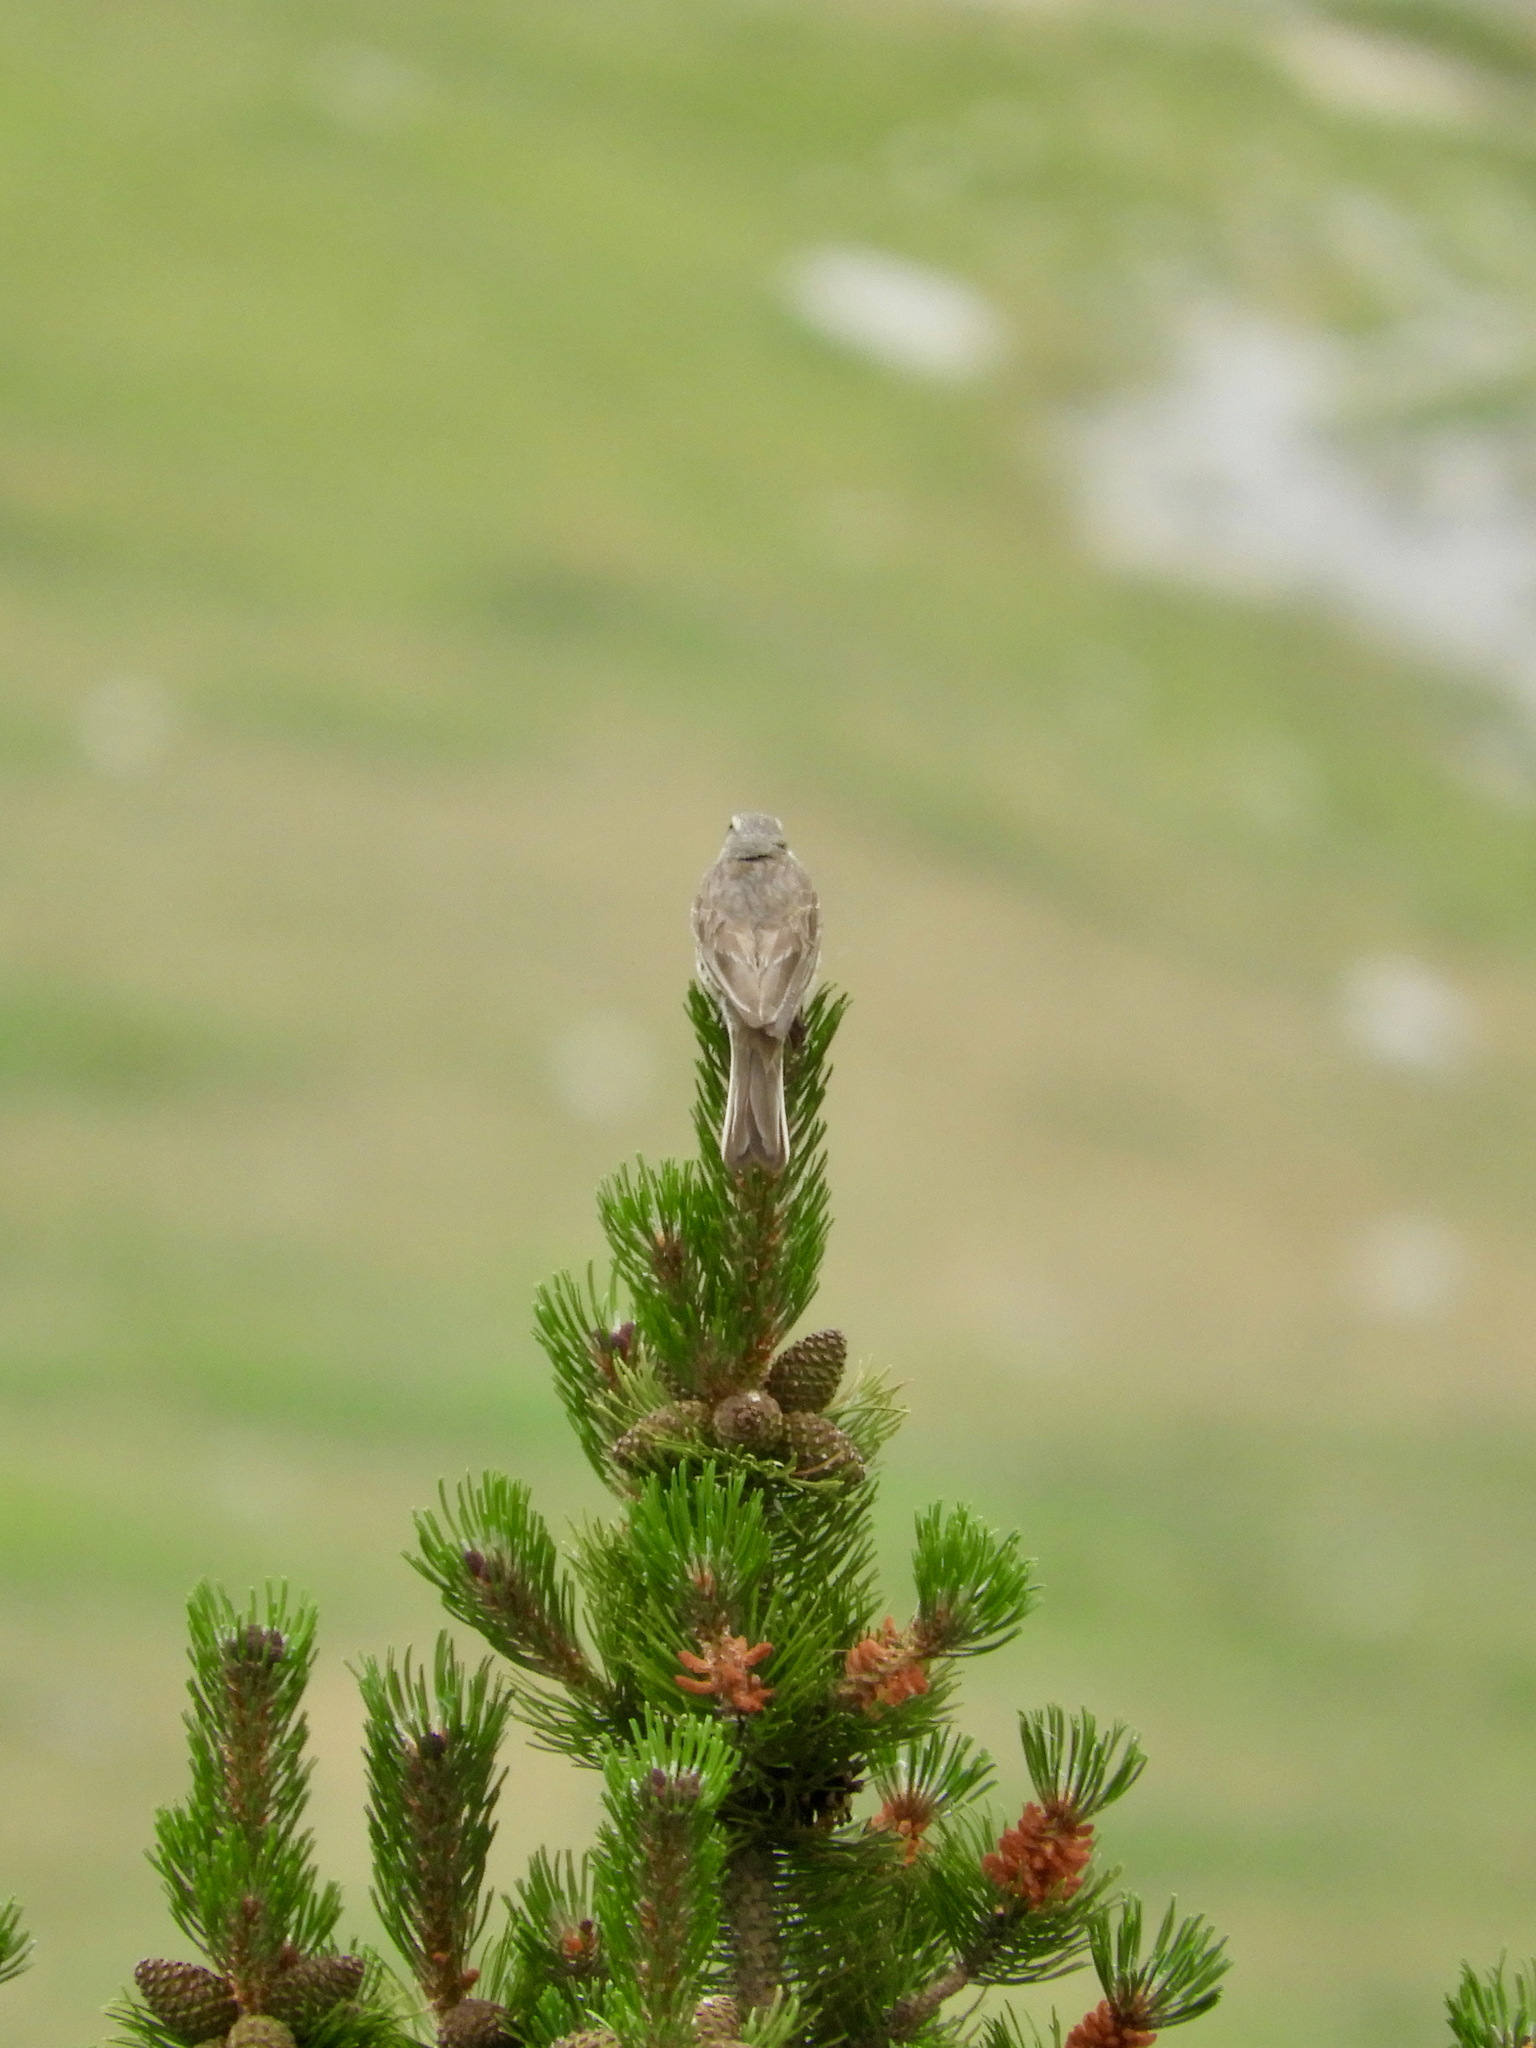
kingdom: Animalia
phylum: Chordata
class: Aves
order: Passeriformes
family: Motacillidae
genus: Anthus
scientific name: Anthus spinoletta
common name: Water pipit
